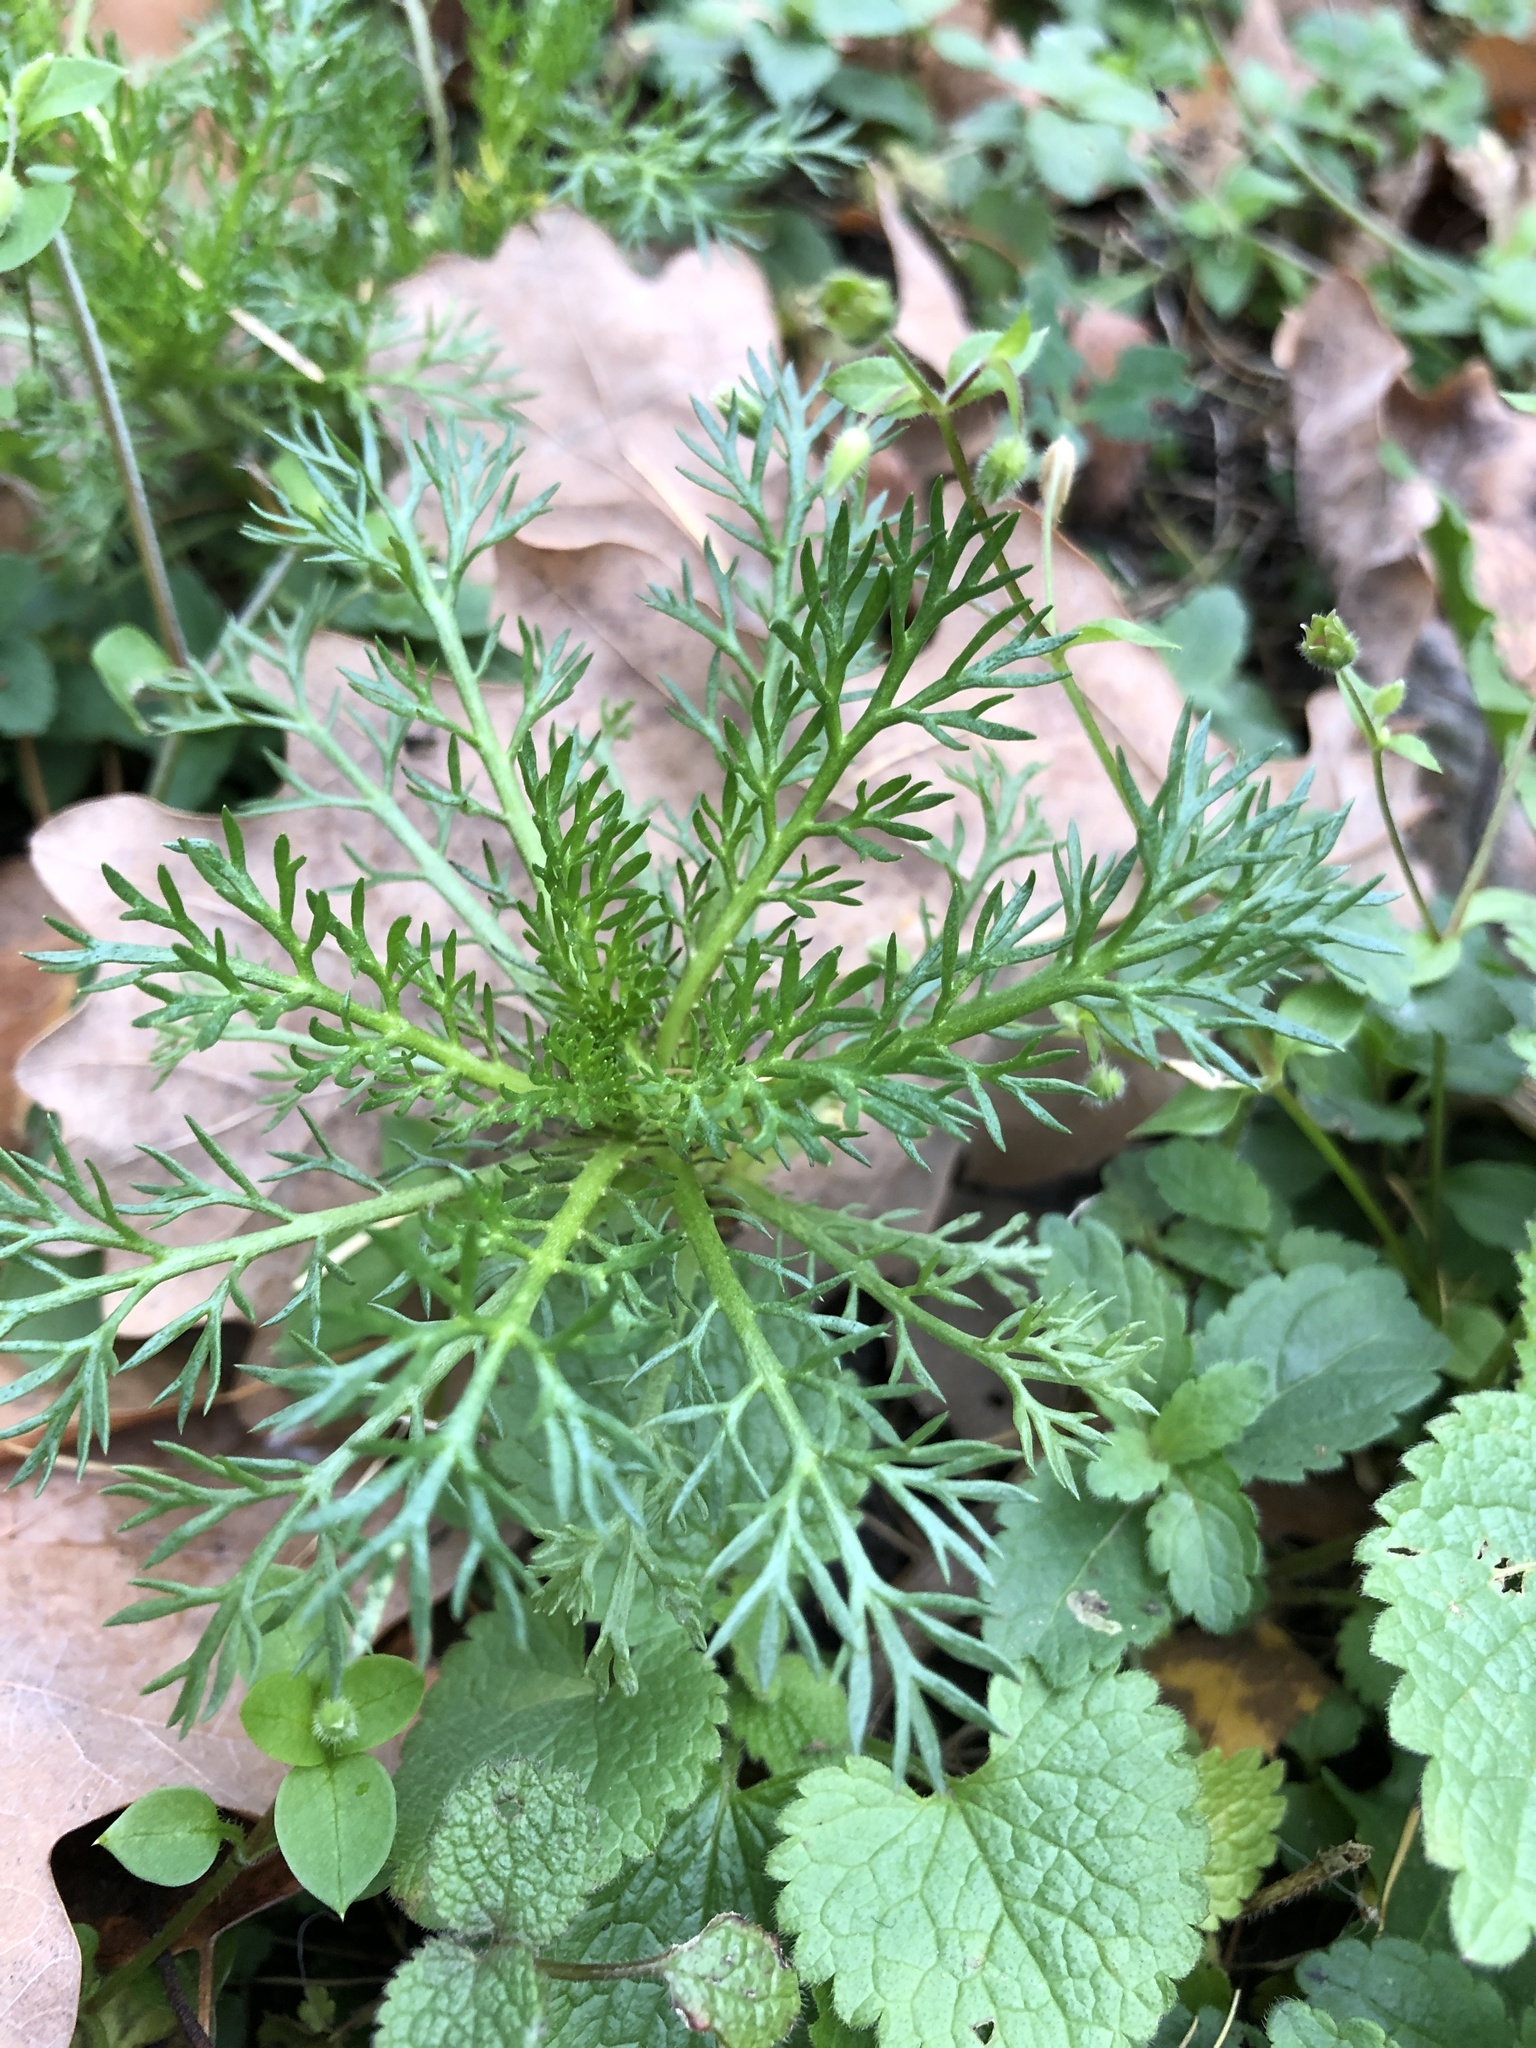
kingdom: Plantae
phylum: Tracheophyta
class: Magnoliopsida
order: Asterales
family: Asteraceae
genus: Tripleurospermum
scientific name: Tripleurospermum inodorum
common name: Scentless mayweed
